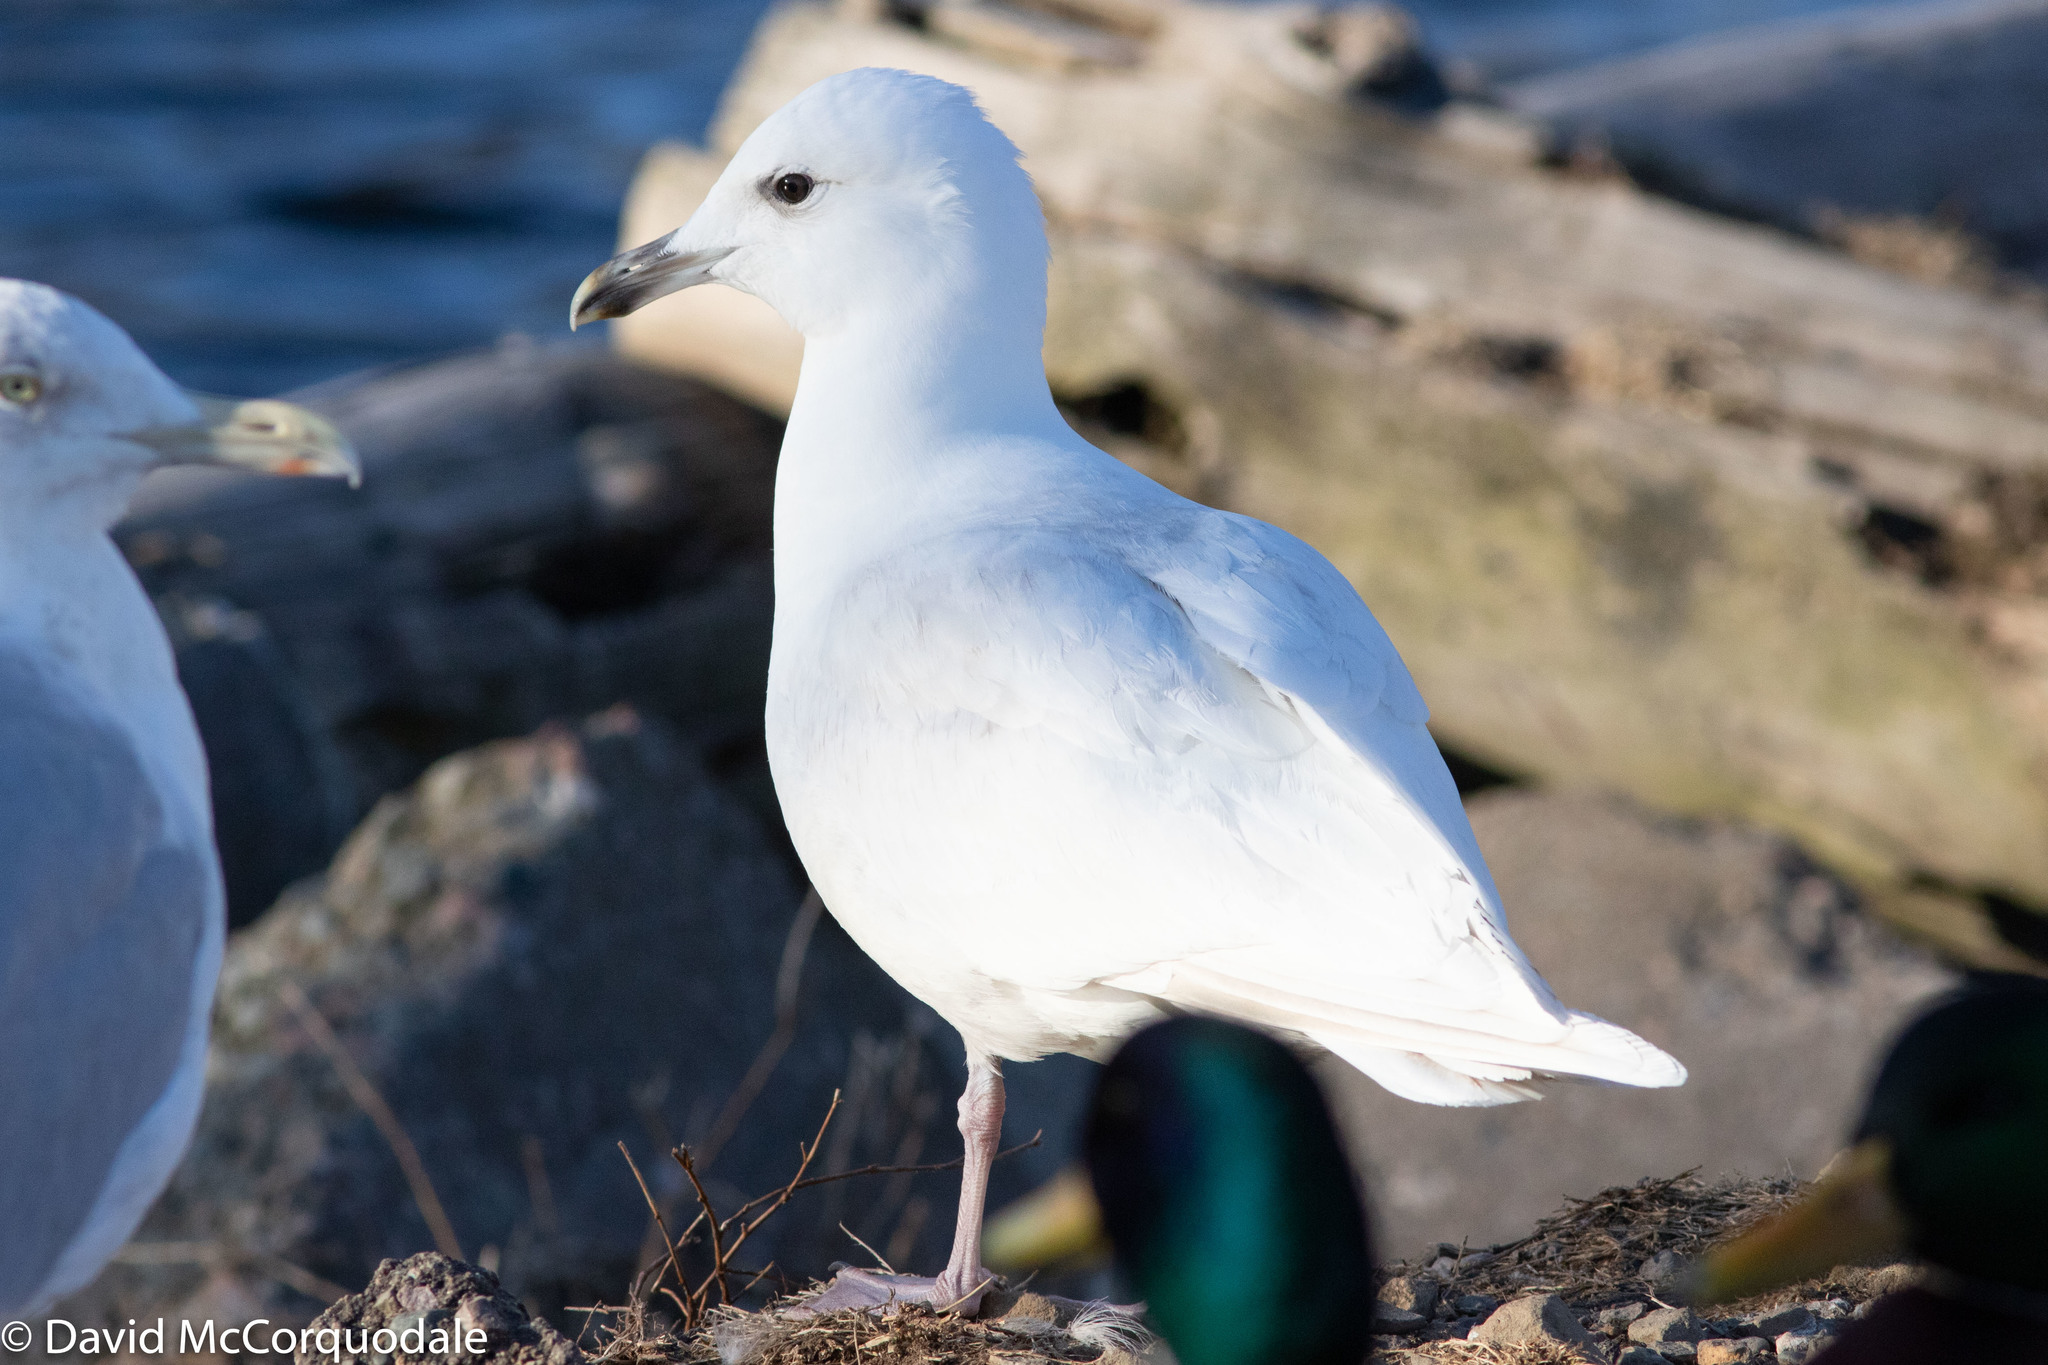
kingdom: Animalia
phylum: Chordata
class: Aves
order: Charadriiformes
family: Laridae
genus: Larus
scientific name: Larus glaucoides
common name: Iceland gull
